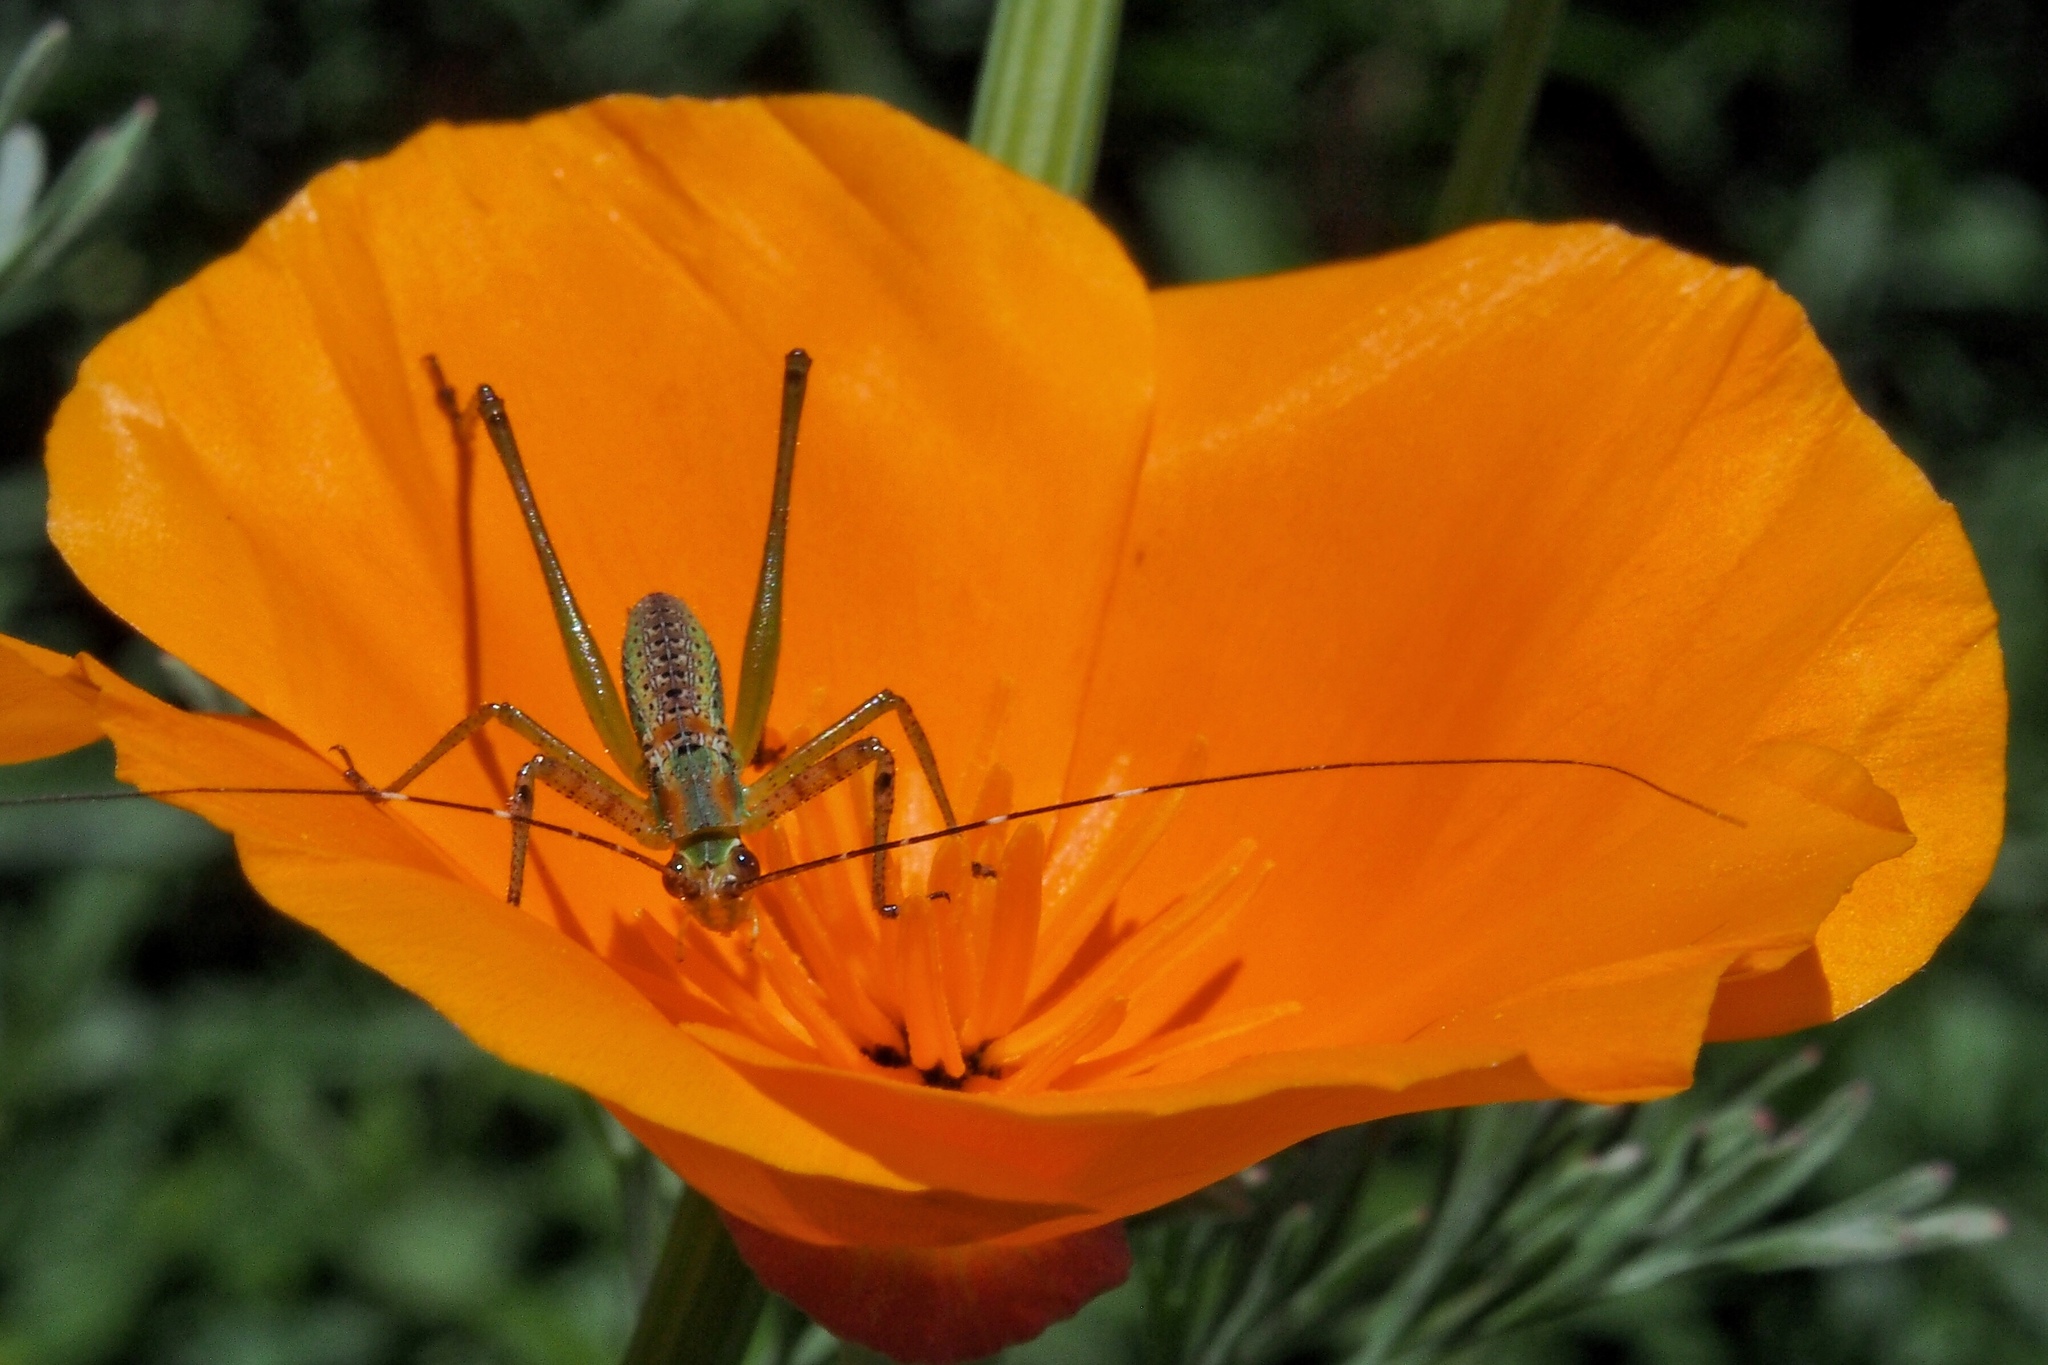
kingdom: Animalia
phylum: Arthropoda
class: Insecta
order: Orthoptera
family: Tettigoniidae
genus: Scudderia
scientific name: Scudderia
